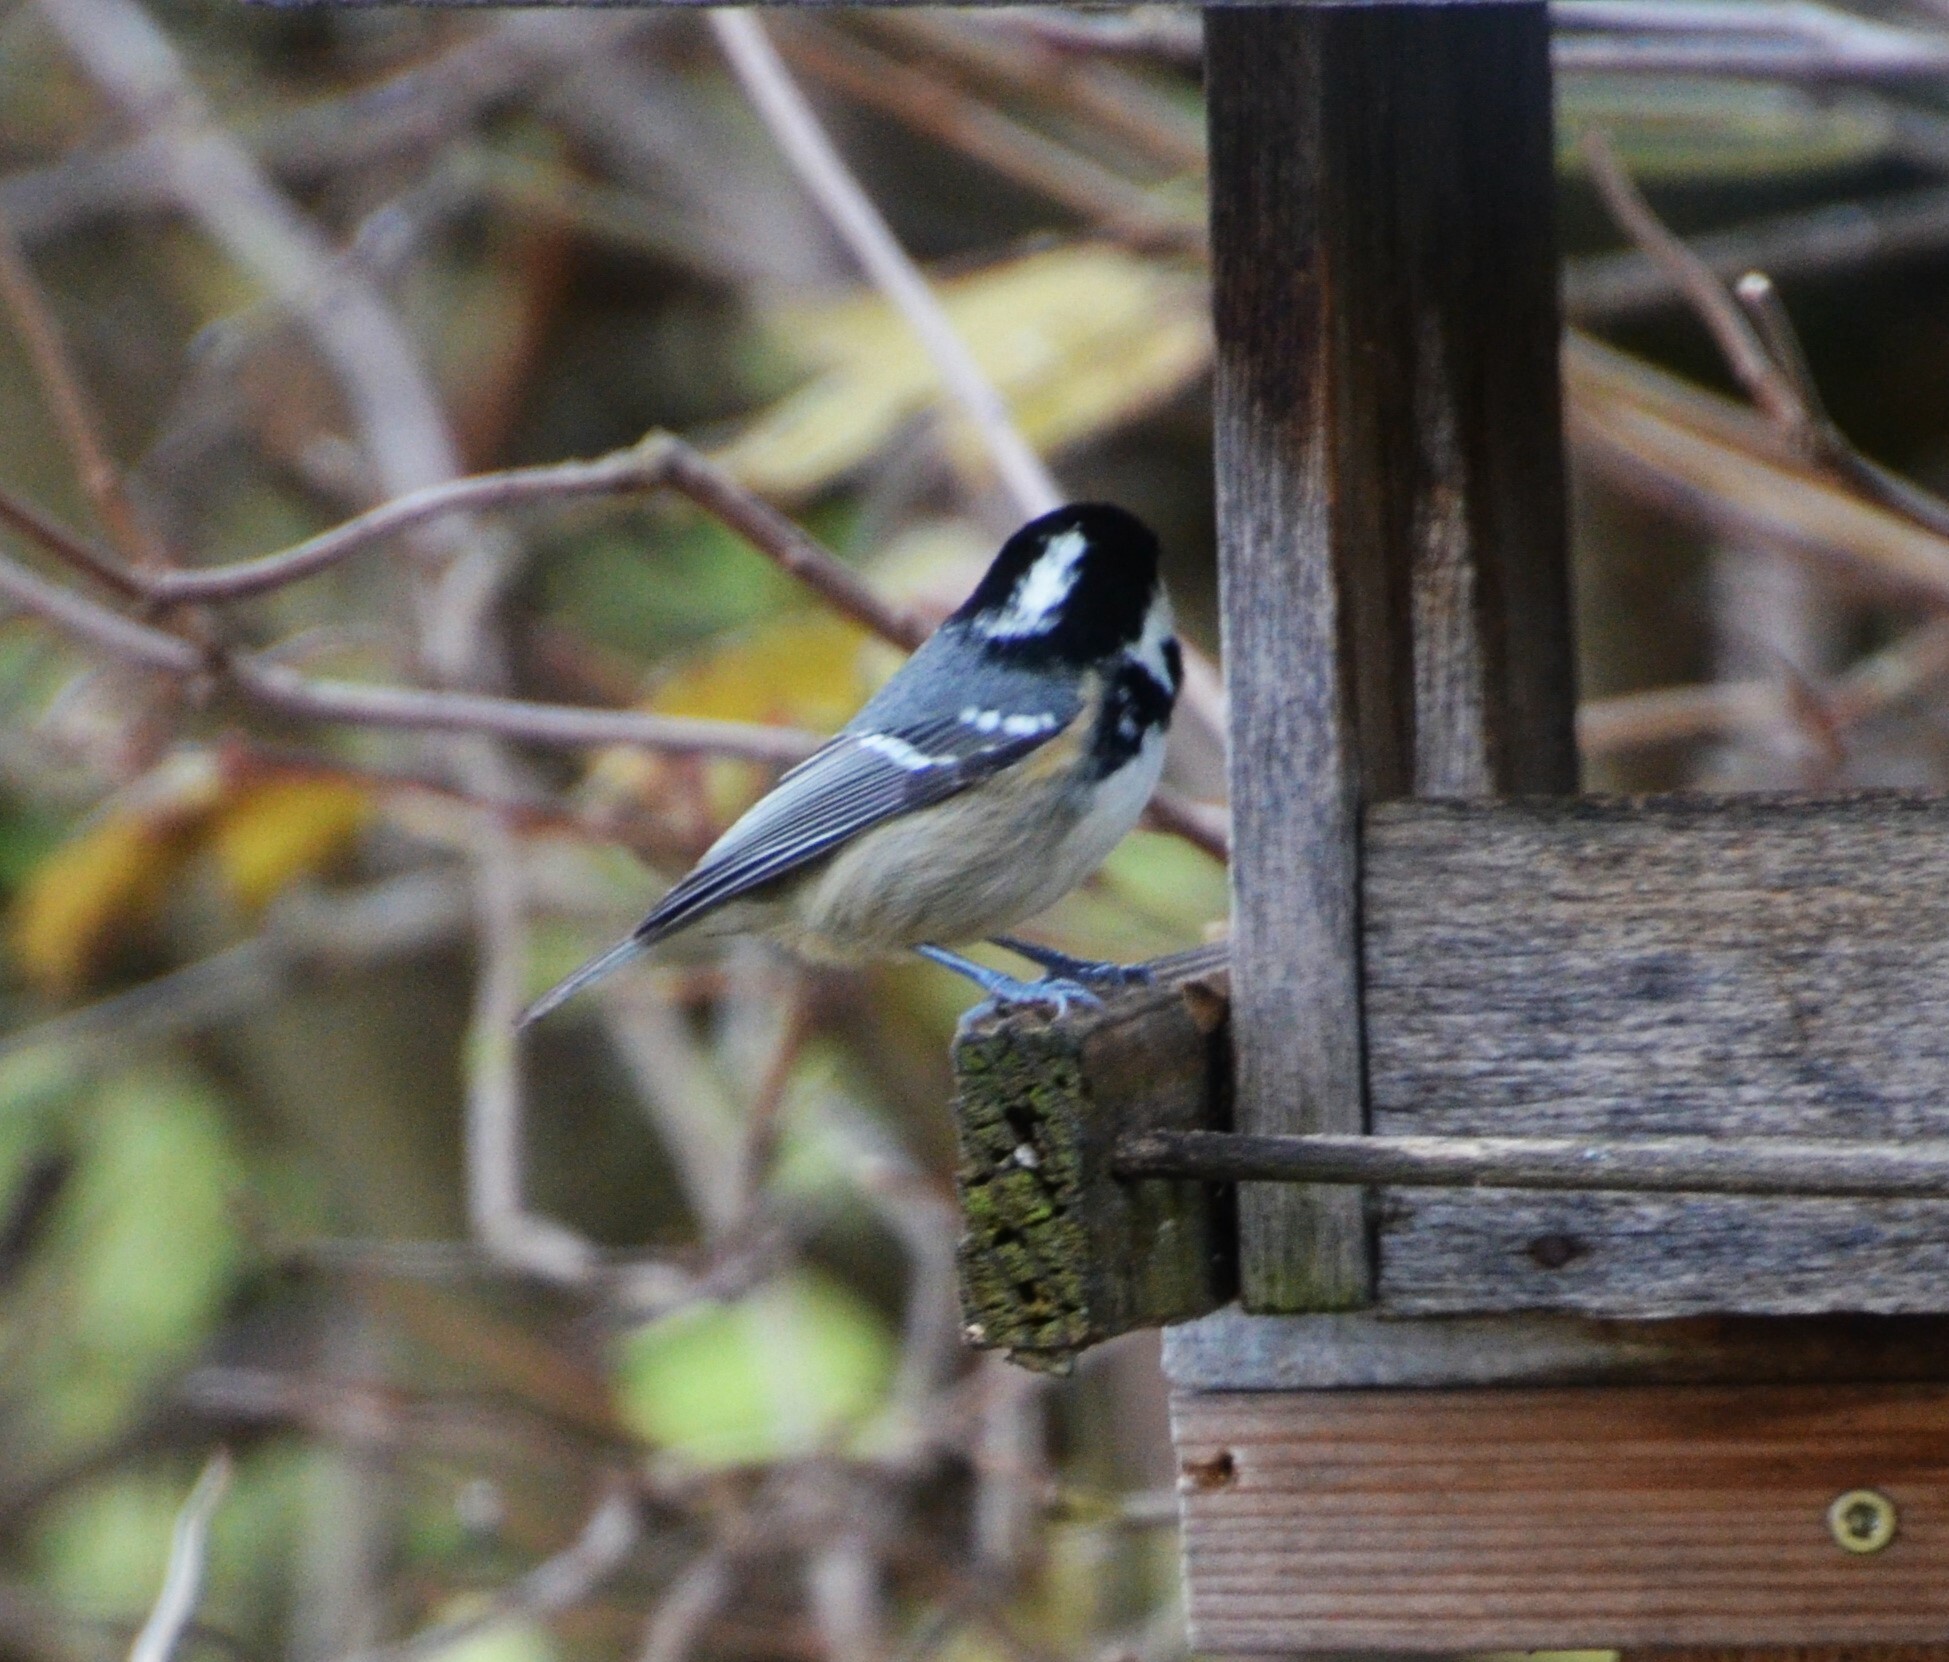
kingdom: Animalia
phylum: Chordata
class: Aves
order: Passeriformes
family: Paridae
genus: Periparus
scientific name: Periparus ater
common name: Coal tit
